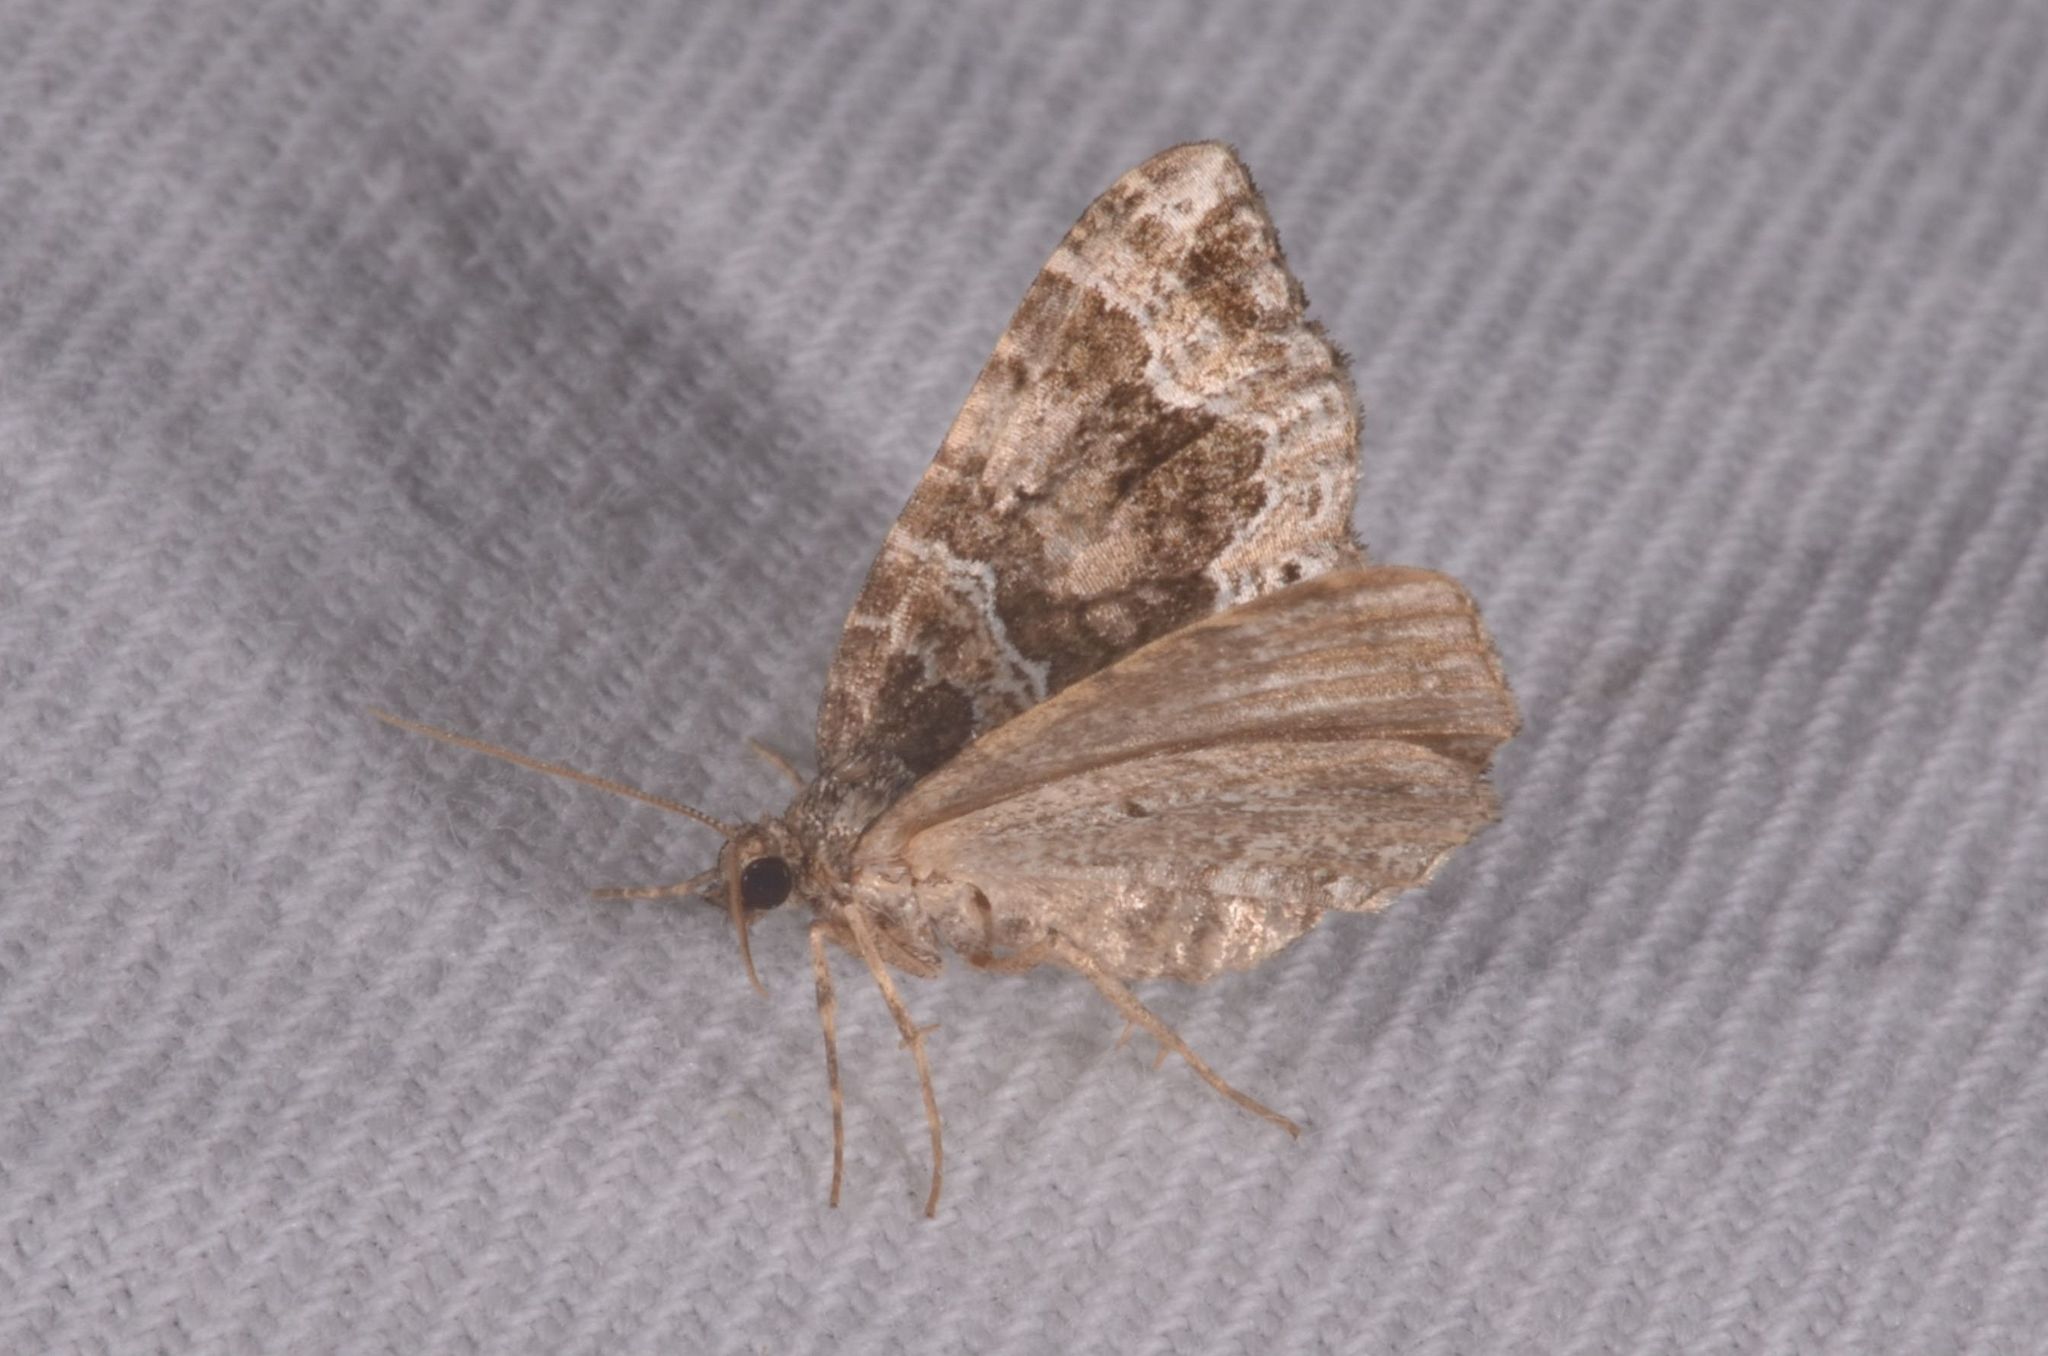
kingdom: Animalia
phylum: Arthropoda
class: Insecta
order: Lepidoptera
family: Geometridae
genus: Lampropteryx
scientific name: Lampropteryx otregiata
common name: Devon carpet
